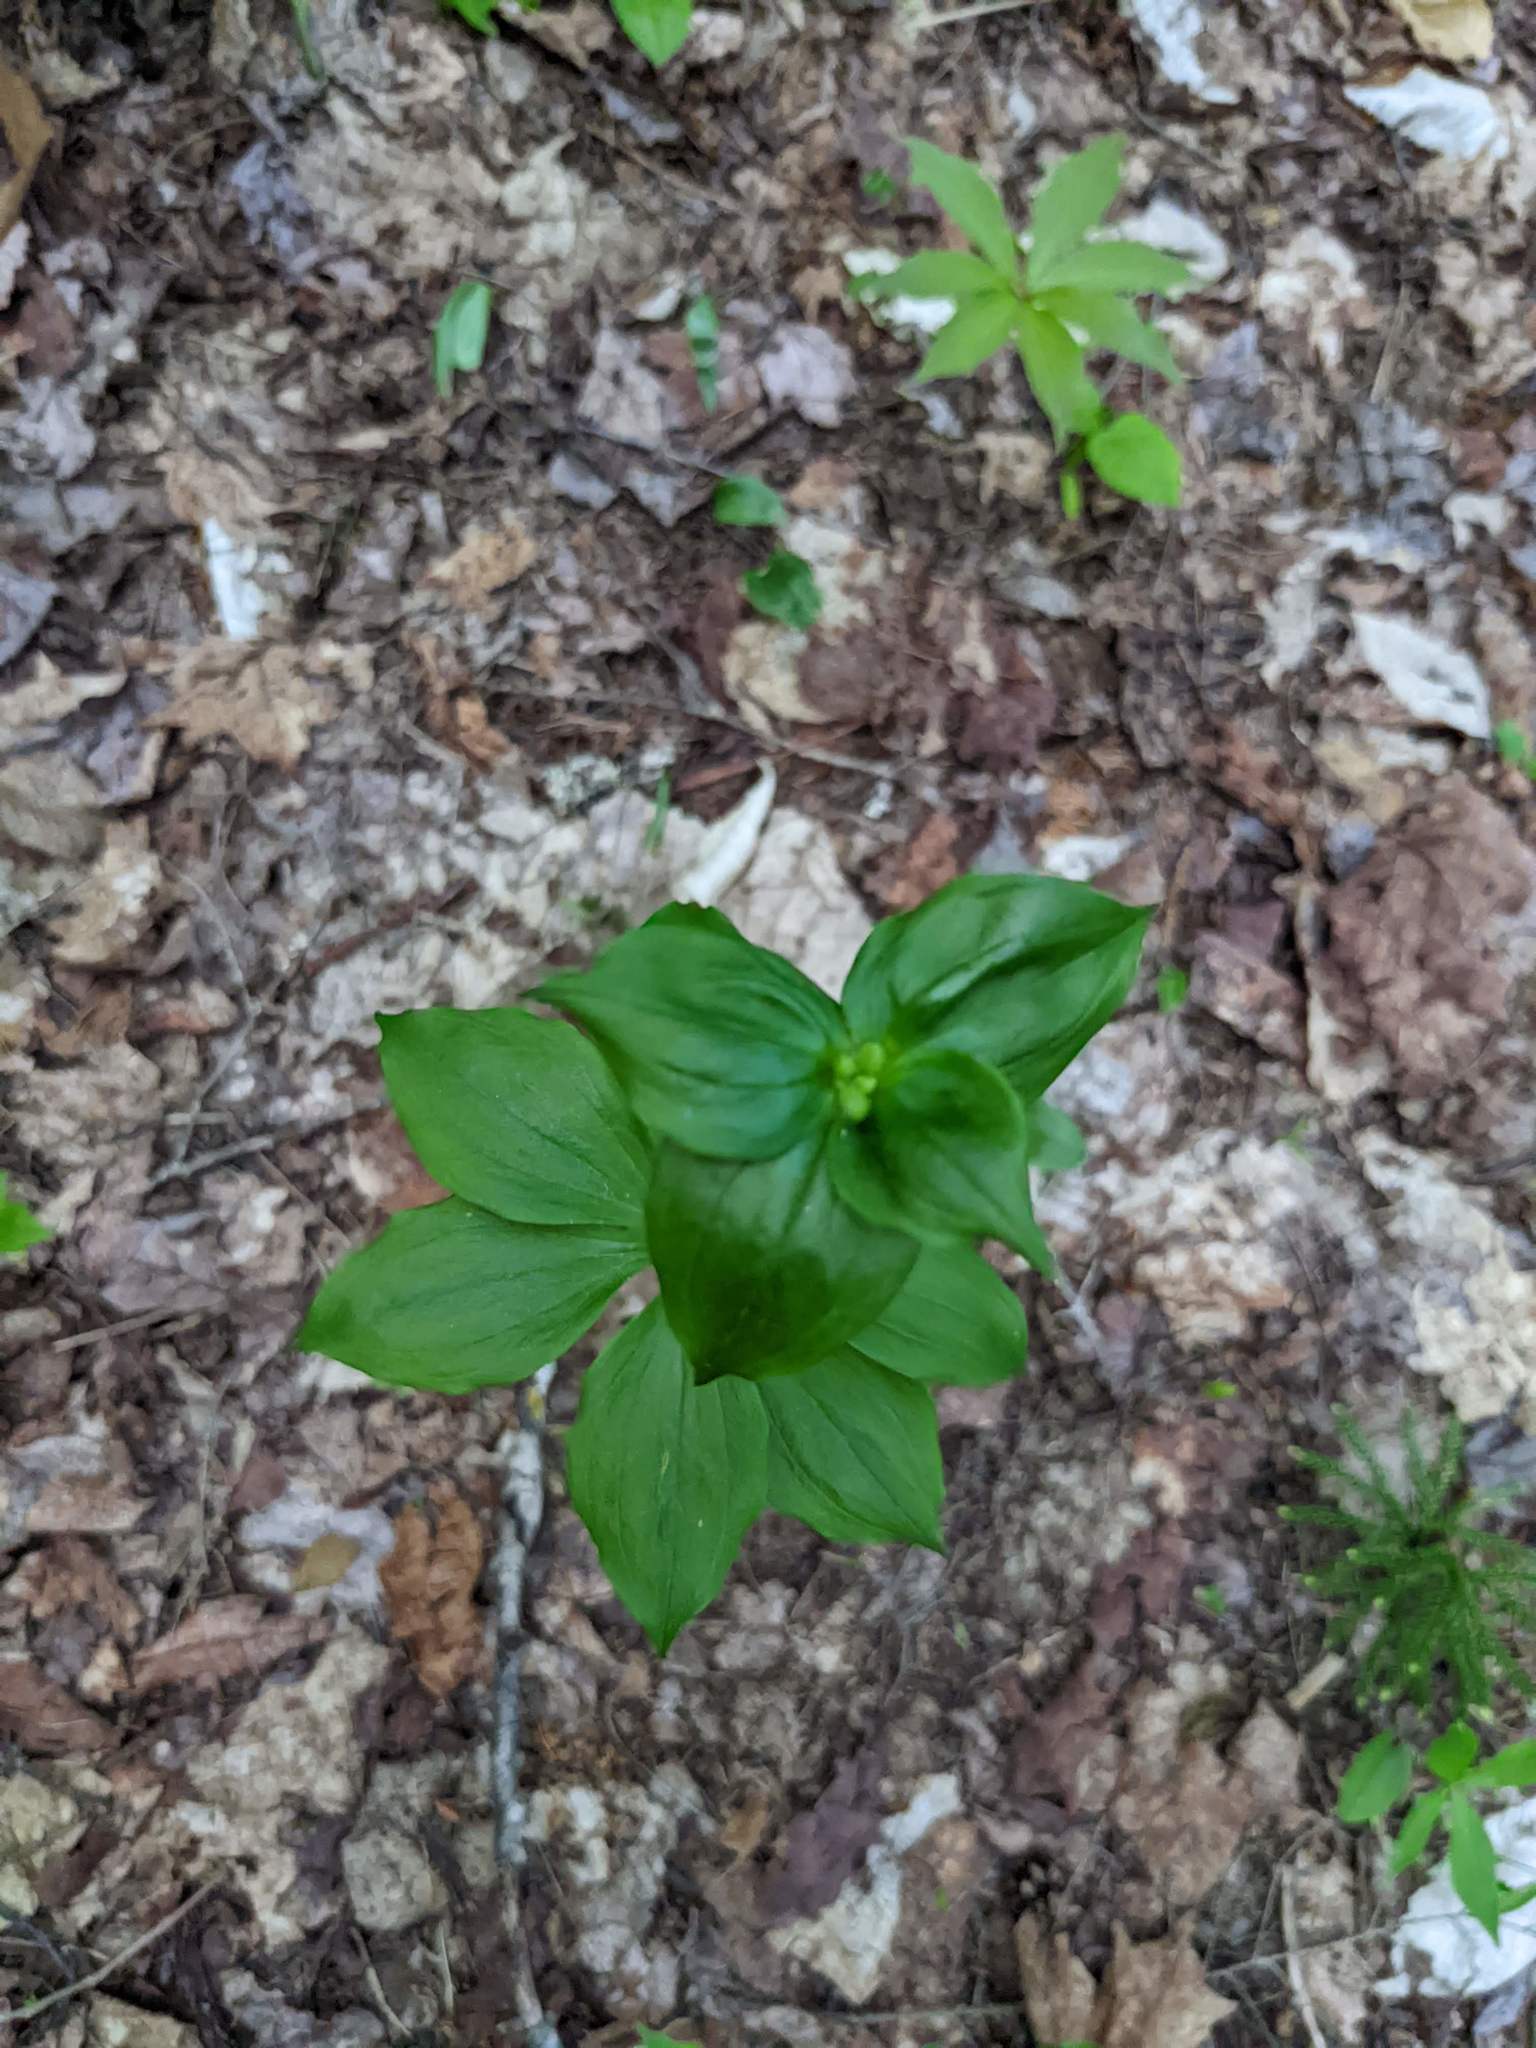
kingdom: Plantae
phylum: Tracheophyta
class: Liliopsida
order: Liliales
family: Liliaceae
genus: Medeola
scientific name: Medeola virginiana
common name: Indian cucumber-root
